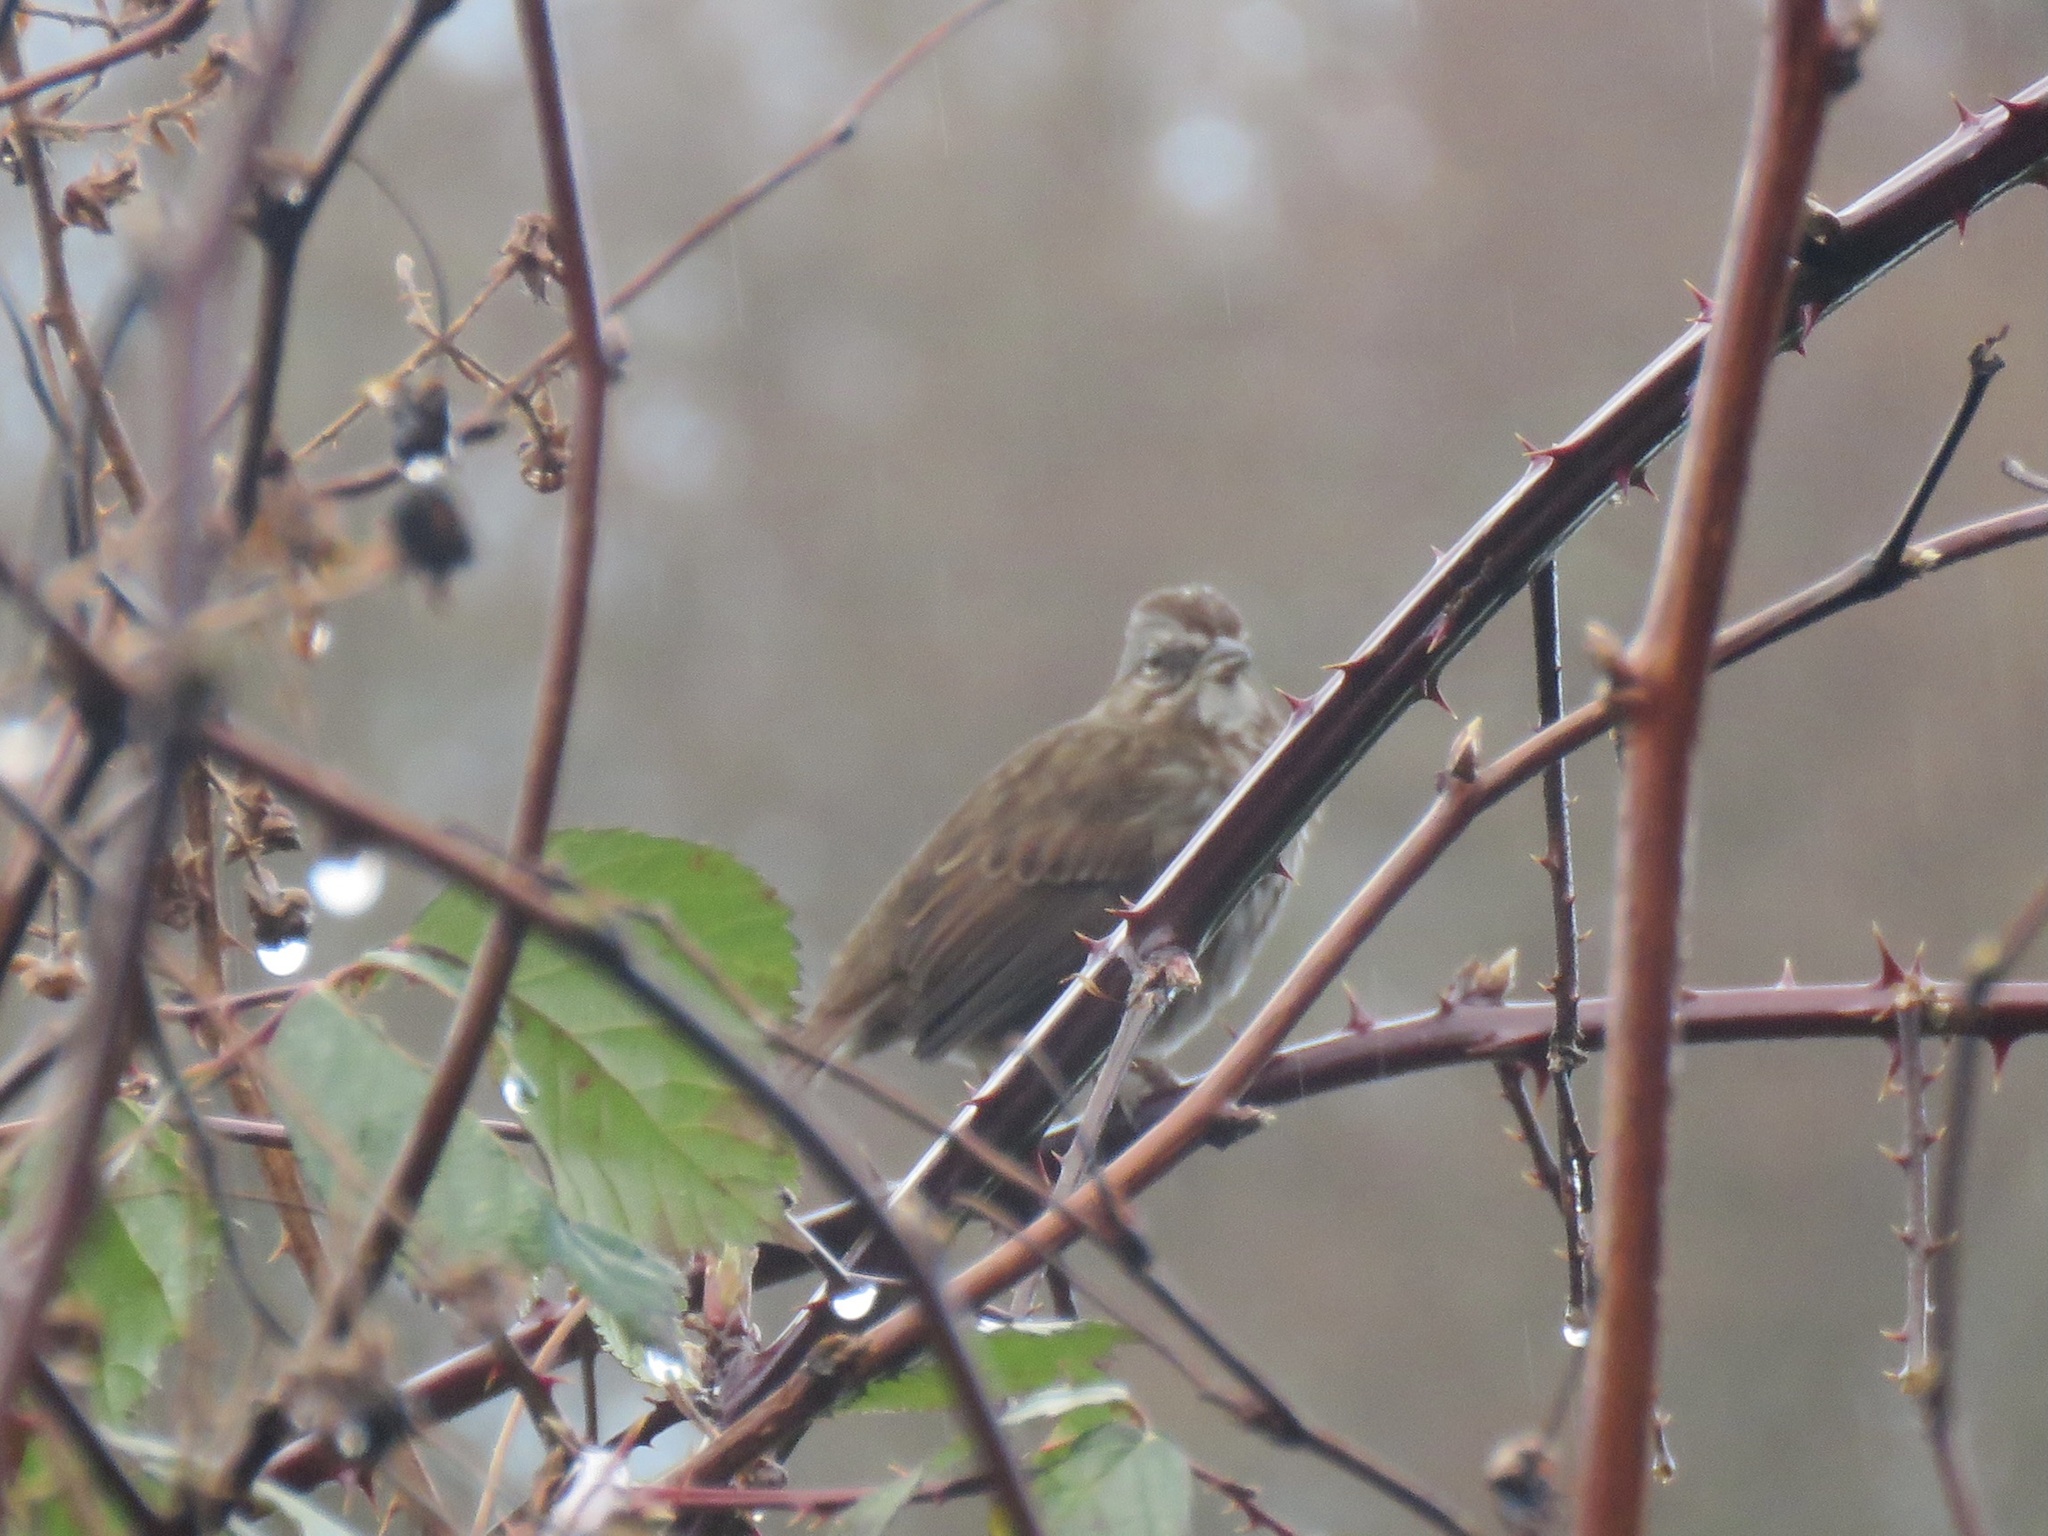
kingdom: Animalia
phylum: Chordata
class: Aves
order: Passeriformes
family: Passerellidae
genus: Melospiza
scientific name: Melospiza melodia
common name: Song sparrow
